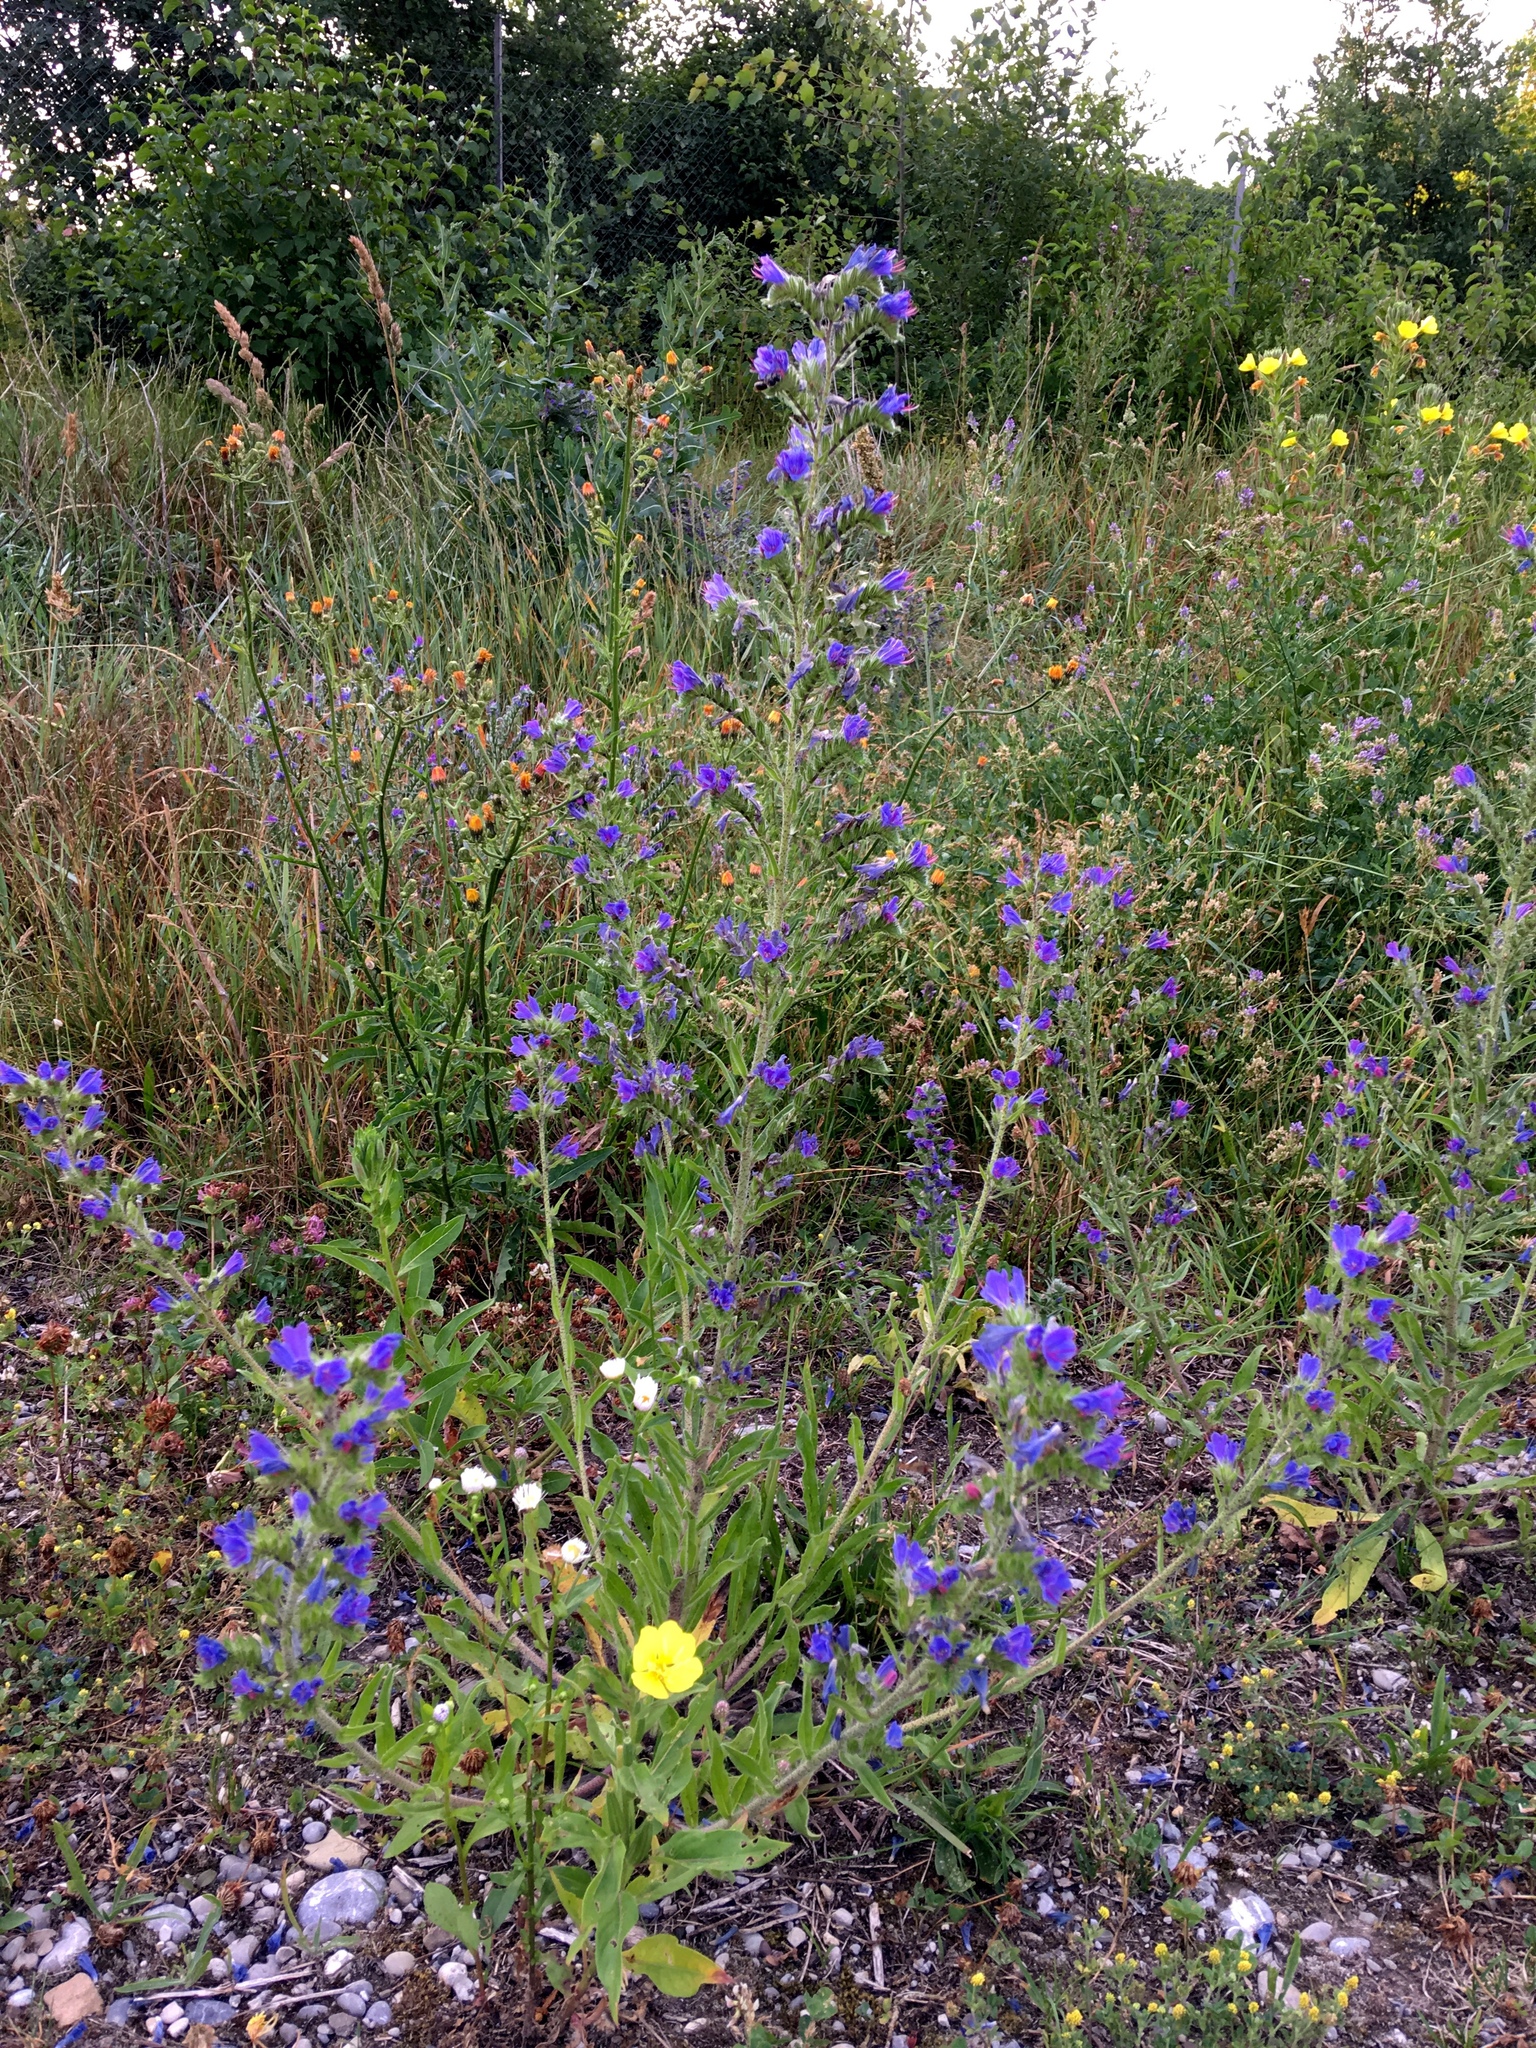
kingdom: Plantae
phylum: Tracheophyta
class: Magnoliopsida
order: Boraginales
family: Boraginaceae
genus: Echium
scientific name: Echium vulgare
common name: Common viper's bugloss
